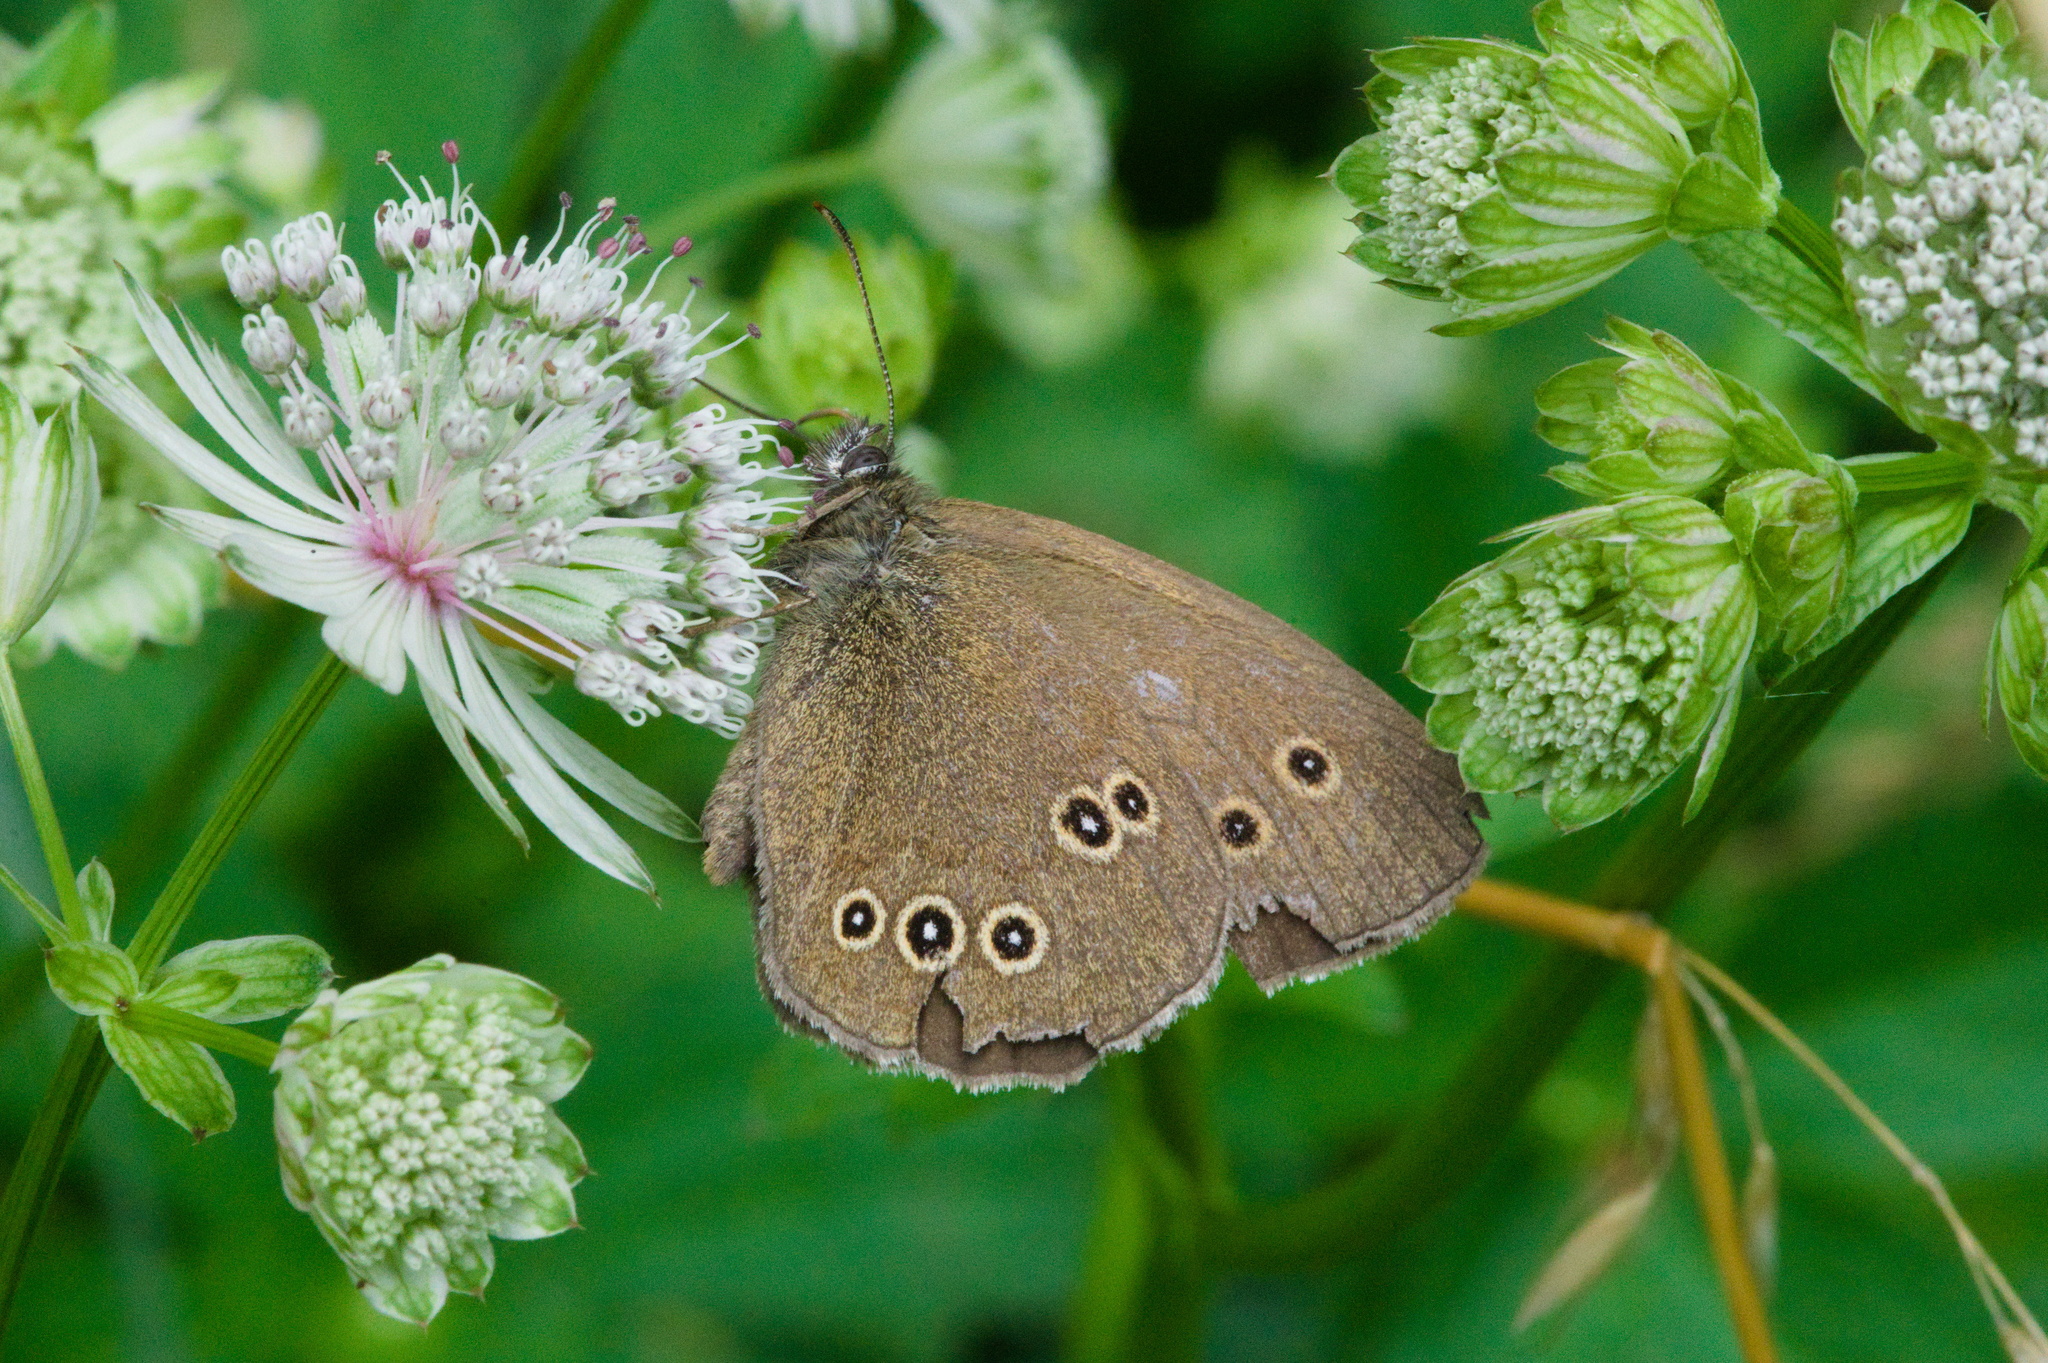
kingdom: Animalia
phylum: Arthropoda
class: Insecta
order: Lepidoptera
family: Nymphalidae
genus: Aphantopus
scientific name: Aphantopus hyperantus
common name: Ringlet
